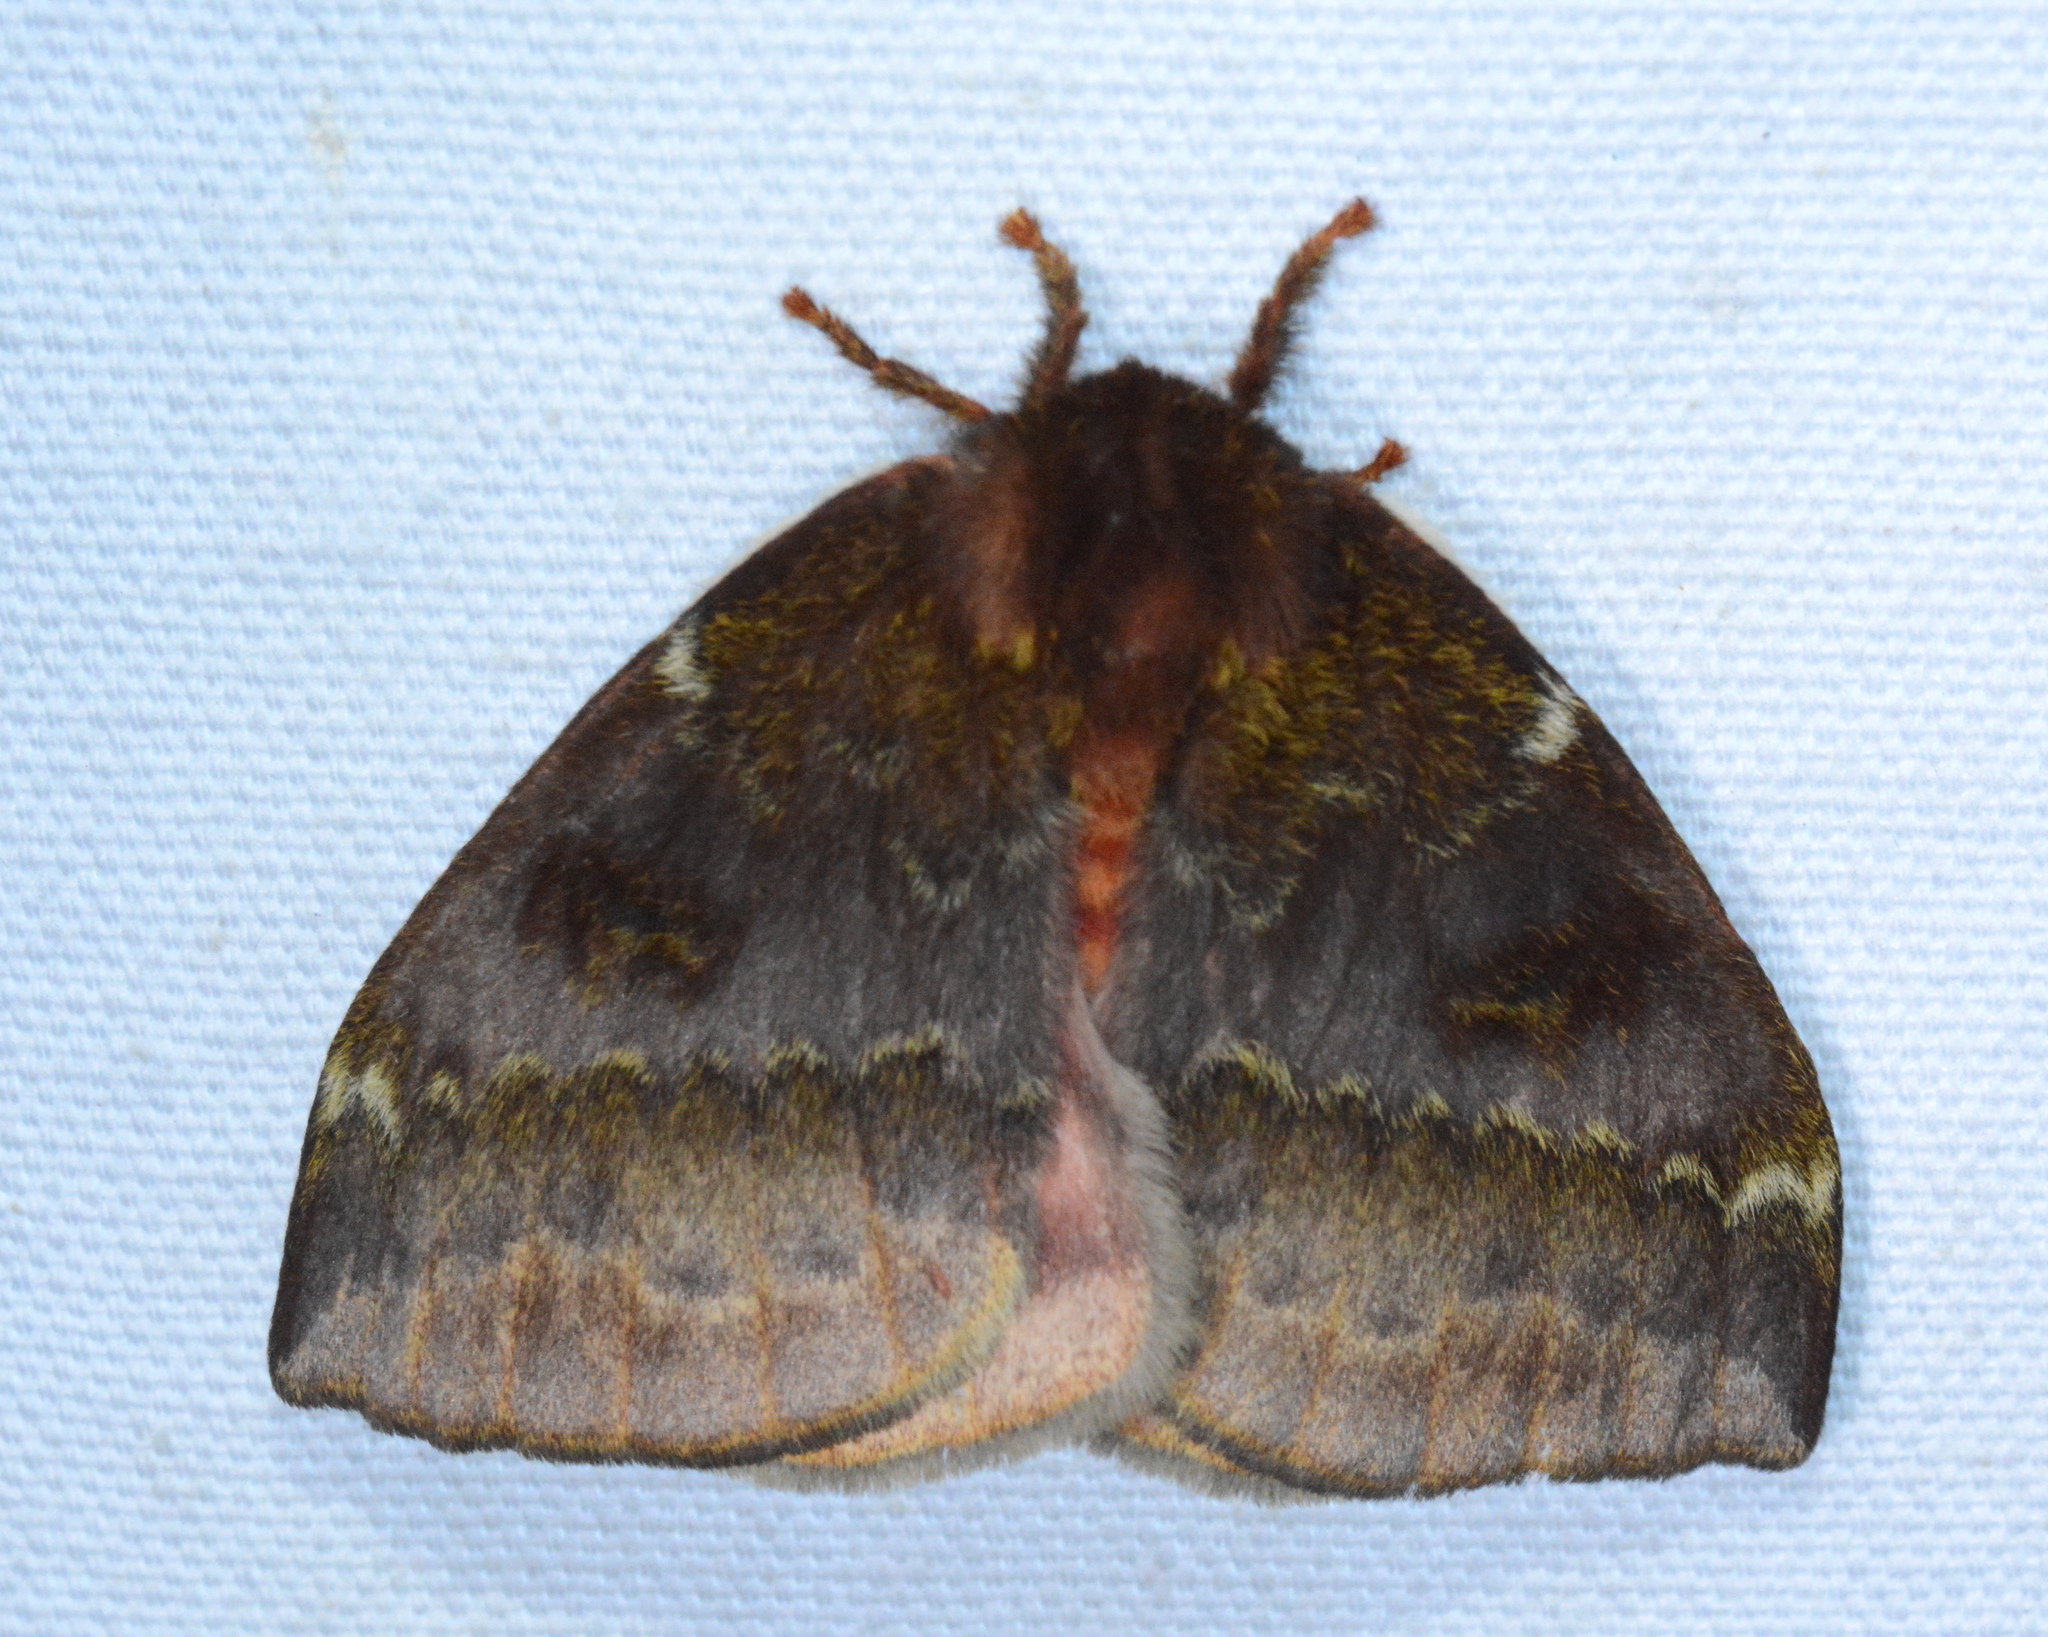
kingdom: Animalia
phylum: Arthropoda
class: Insecta
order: Lepidoptera
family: Saturniidae
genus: Automeris
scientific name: Automeris io
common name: Io moth
